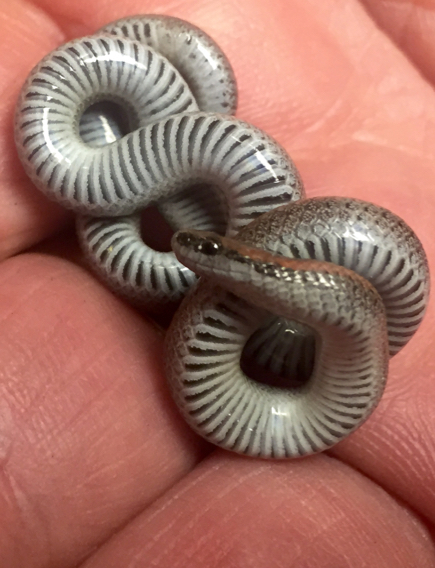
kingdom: Animalia
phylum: Chordata
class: Squamata
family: Colubridae
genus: Contia
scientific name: Contia tenuis
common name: Sharptail snake
